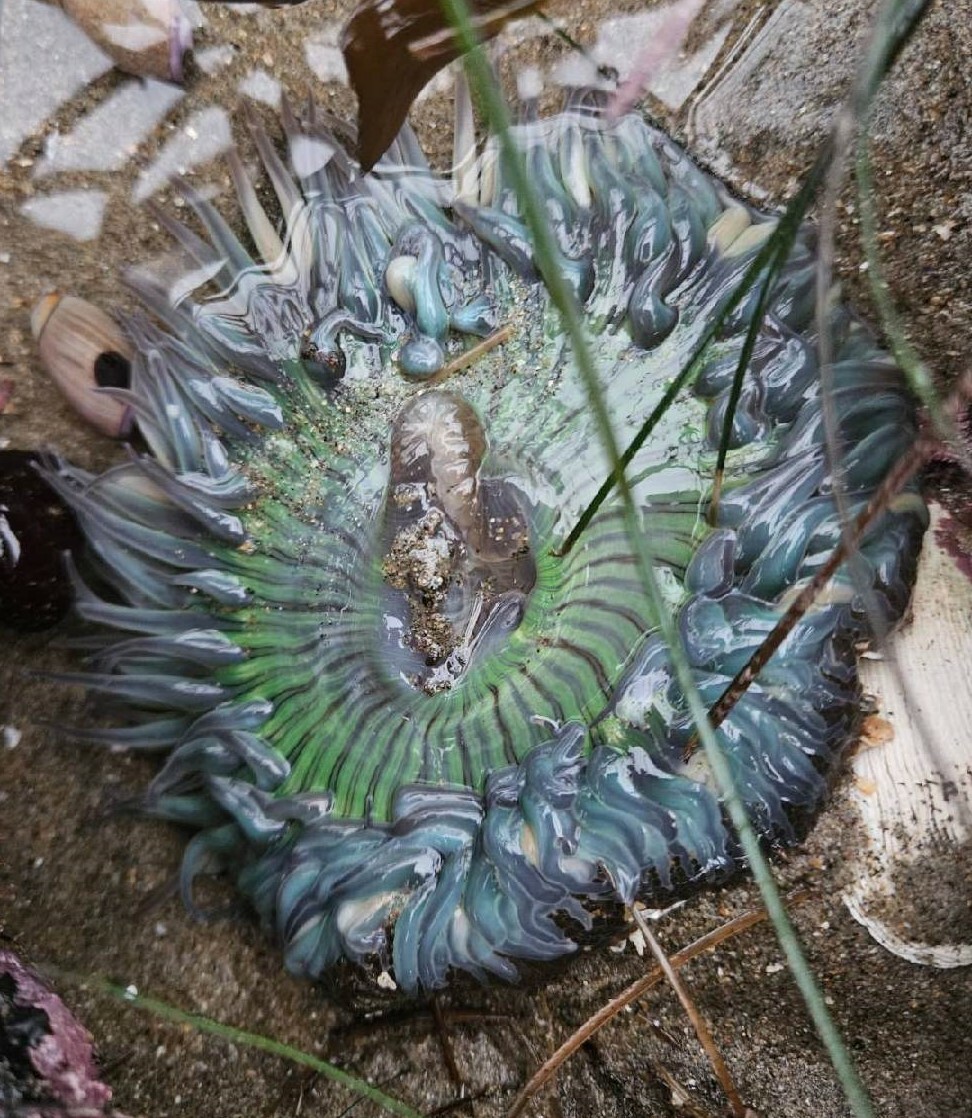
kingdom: Animalia
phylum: Cnidaria
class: Anthozoa
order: Actiniaria
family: Actiniidae
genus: Anthopleura
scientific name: Anthopleura sola
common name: Sun anemone
